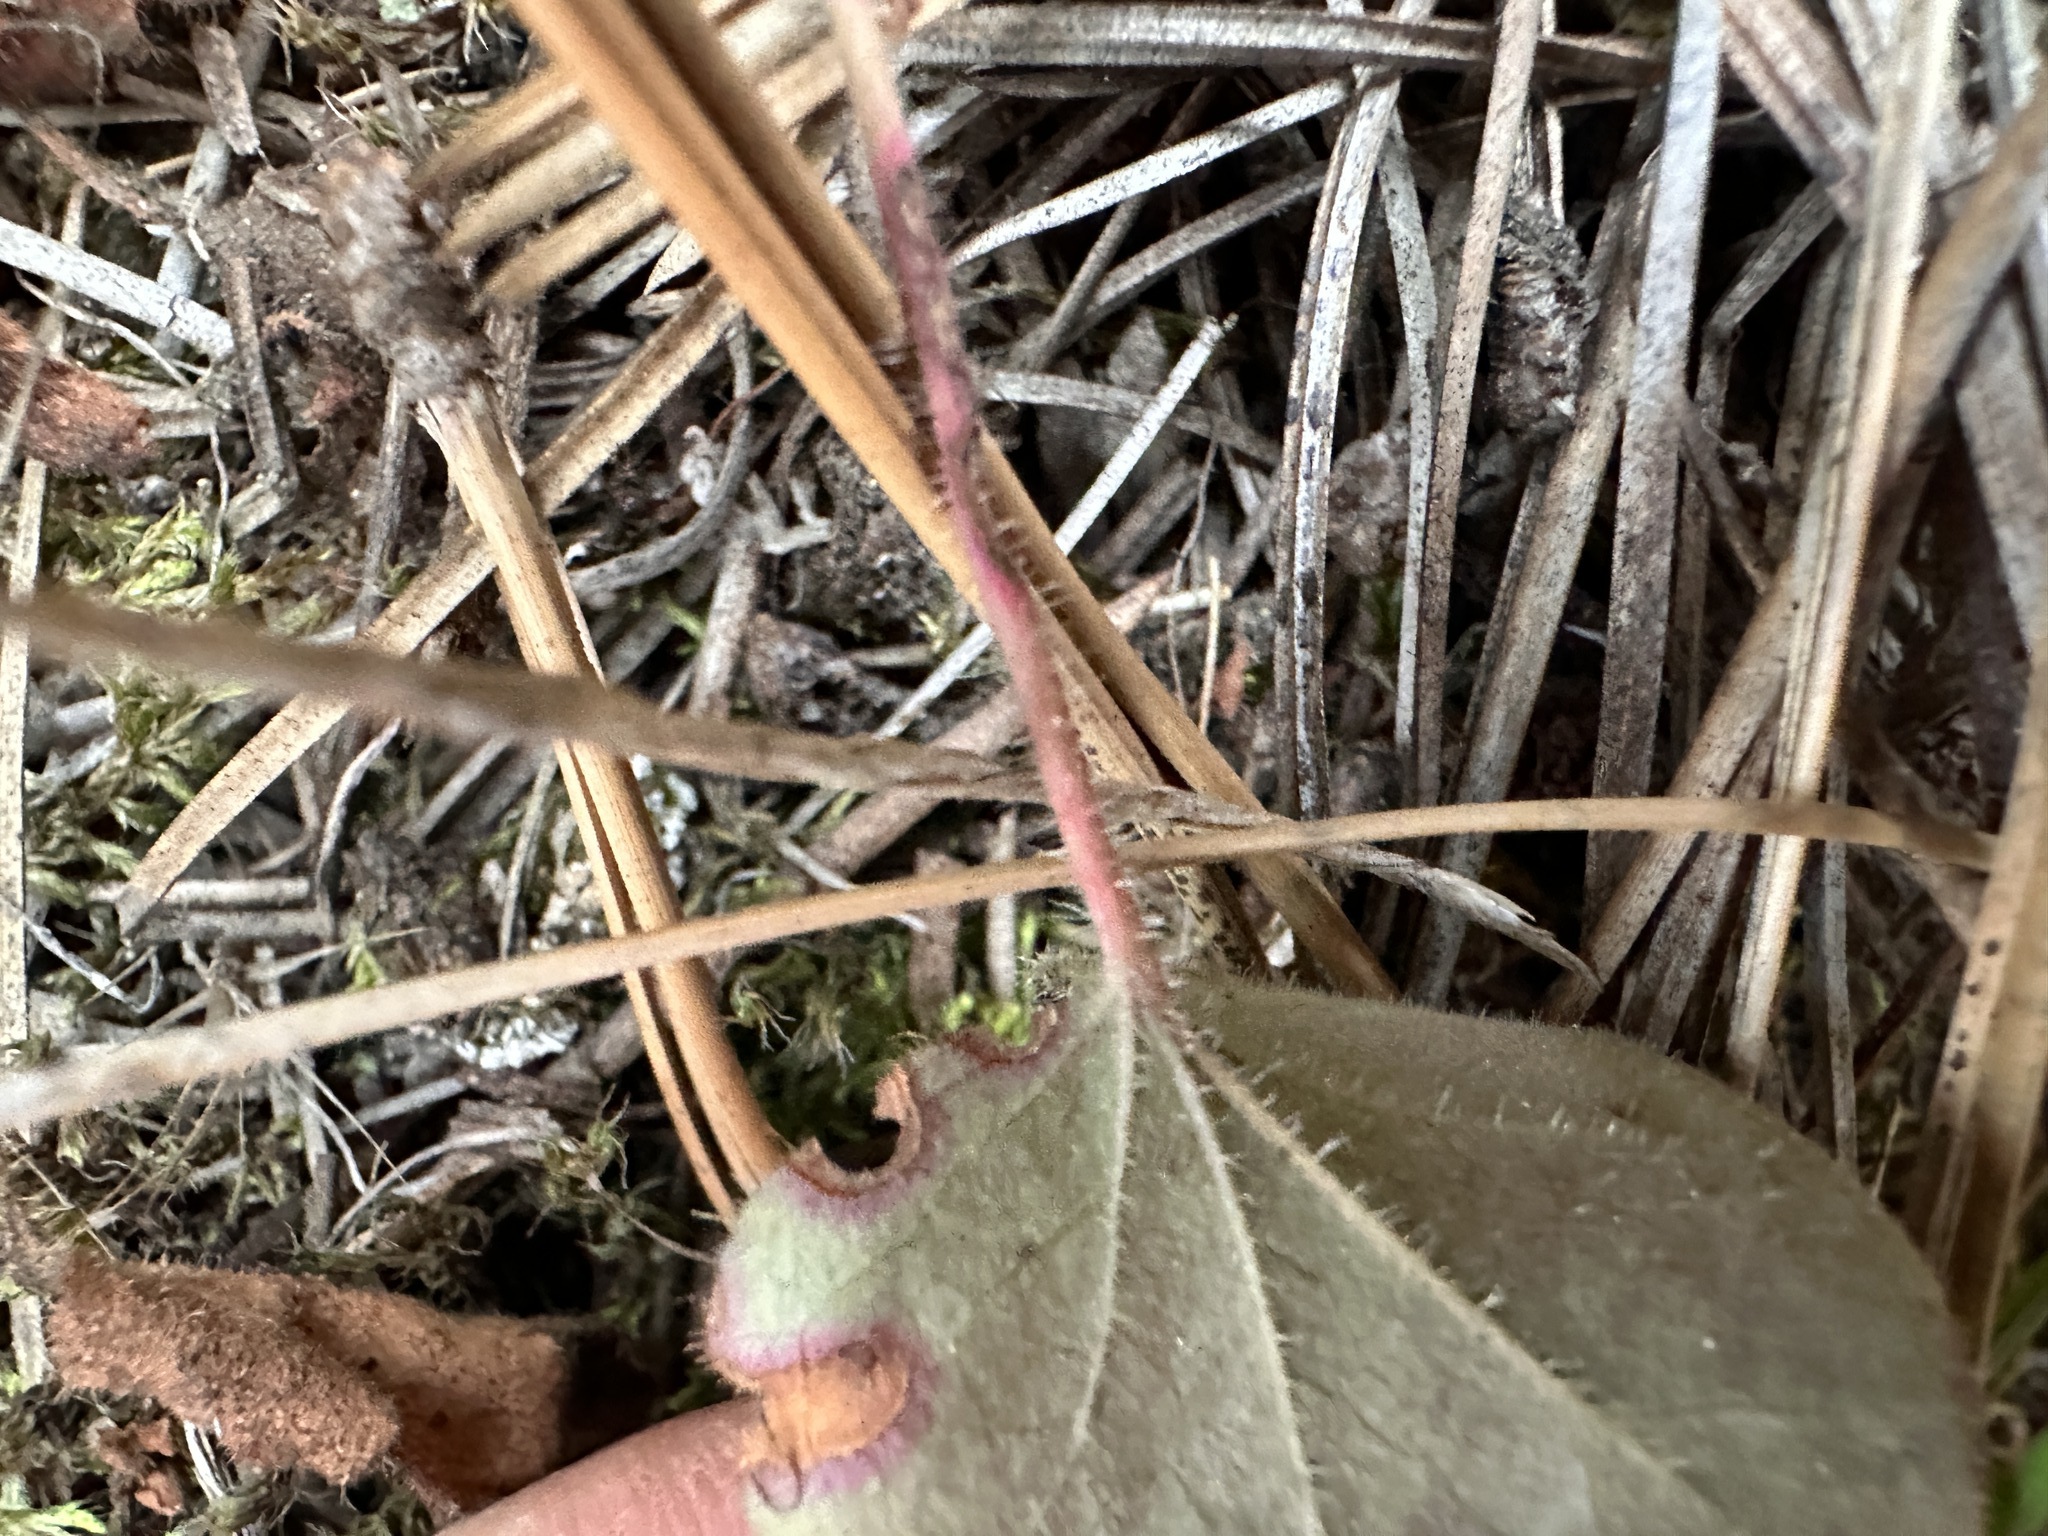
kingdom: Plantae
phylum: Tracheophyta
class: Magnoliopsida
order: Saxifragales
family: Saxifragaceae
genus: Heuchera
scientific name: Heuchera cylindrica
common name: Mat alumroot
